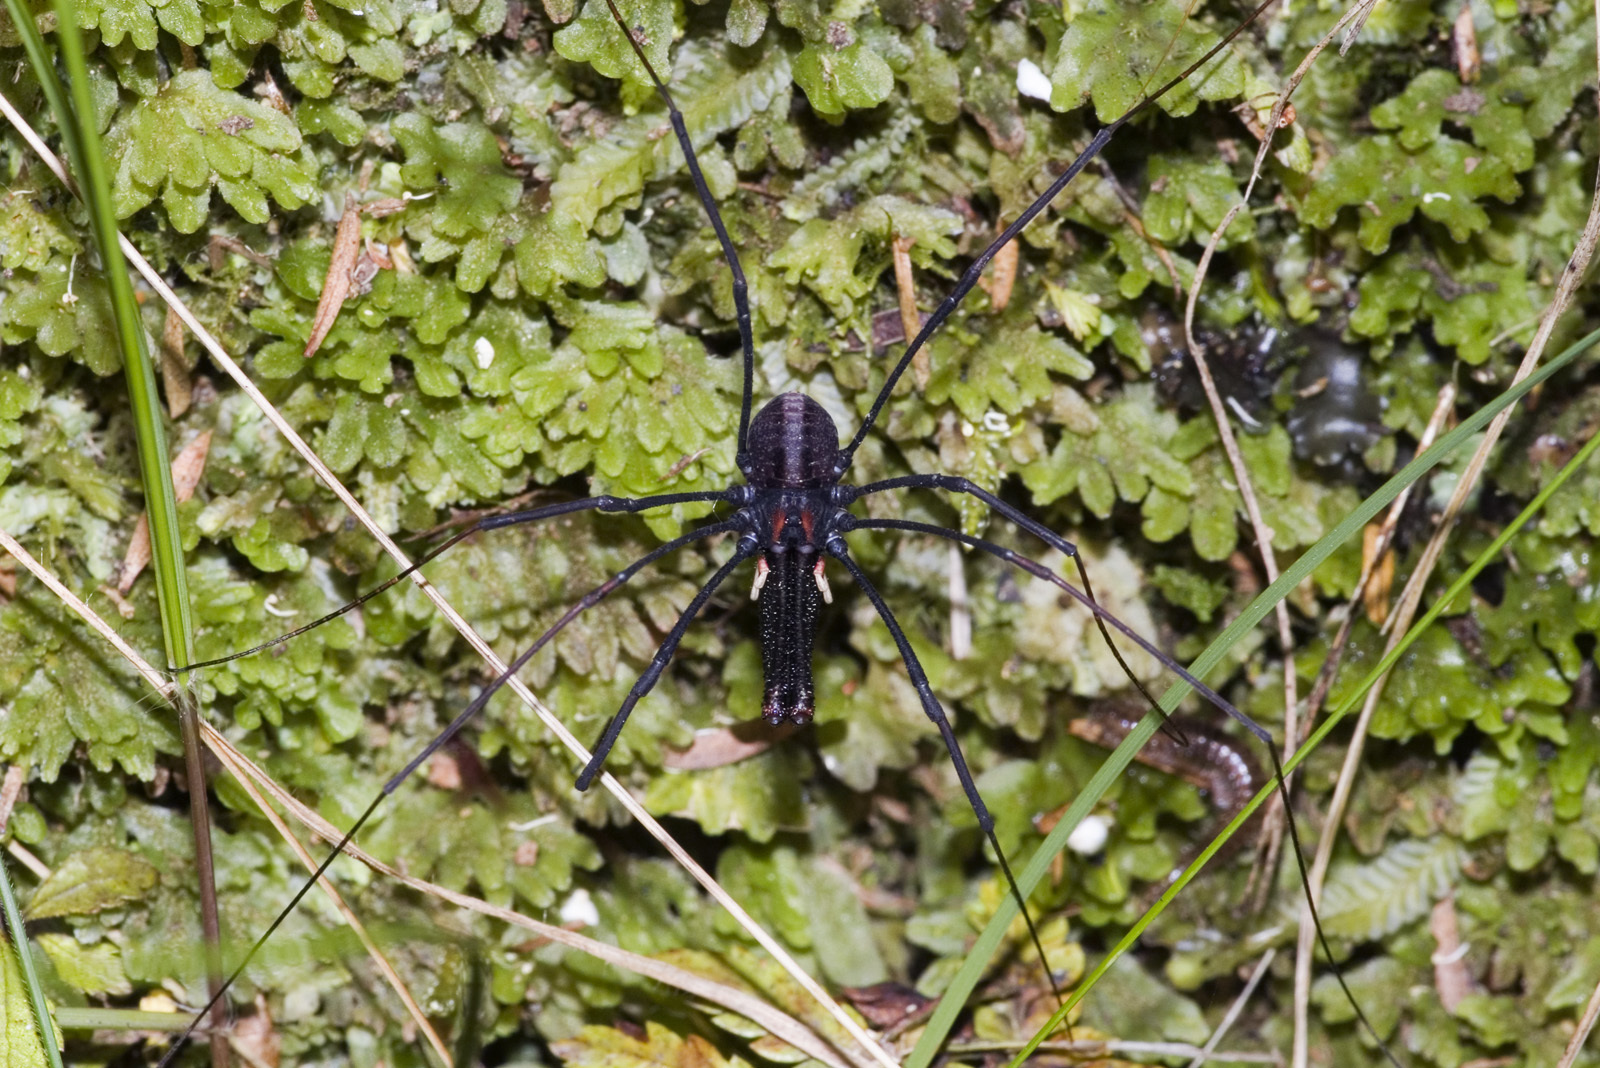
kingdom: Animalia
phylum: Arthropoda
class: Arachnida
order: Opiliones
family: Neopilionidae
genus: Forsteropsalis
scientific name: Forsteropsalis inconstans
